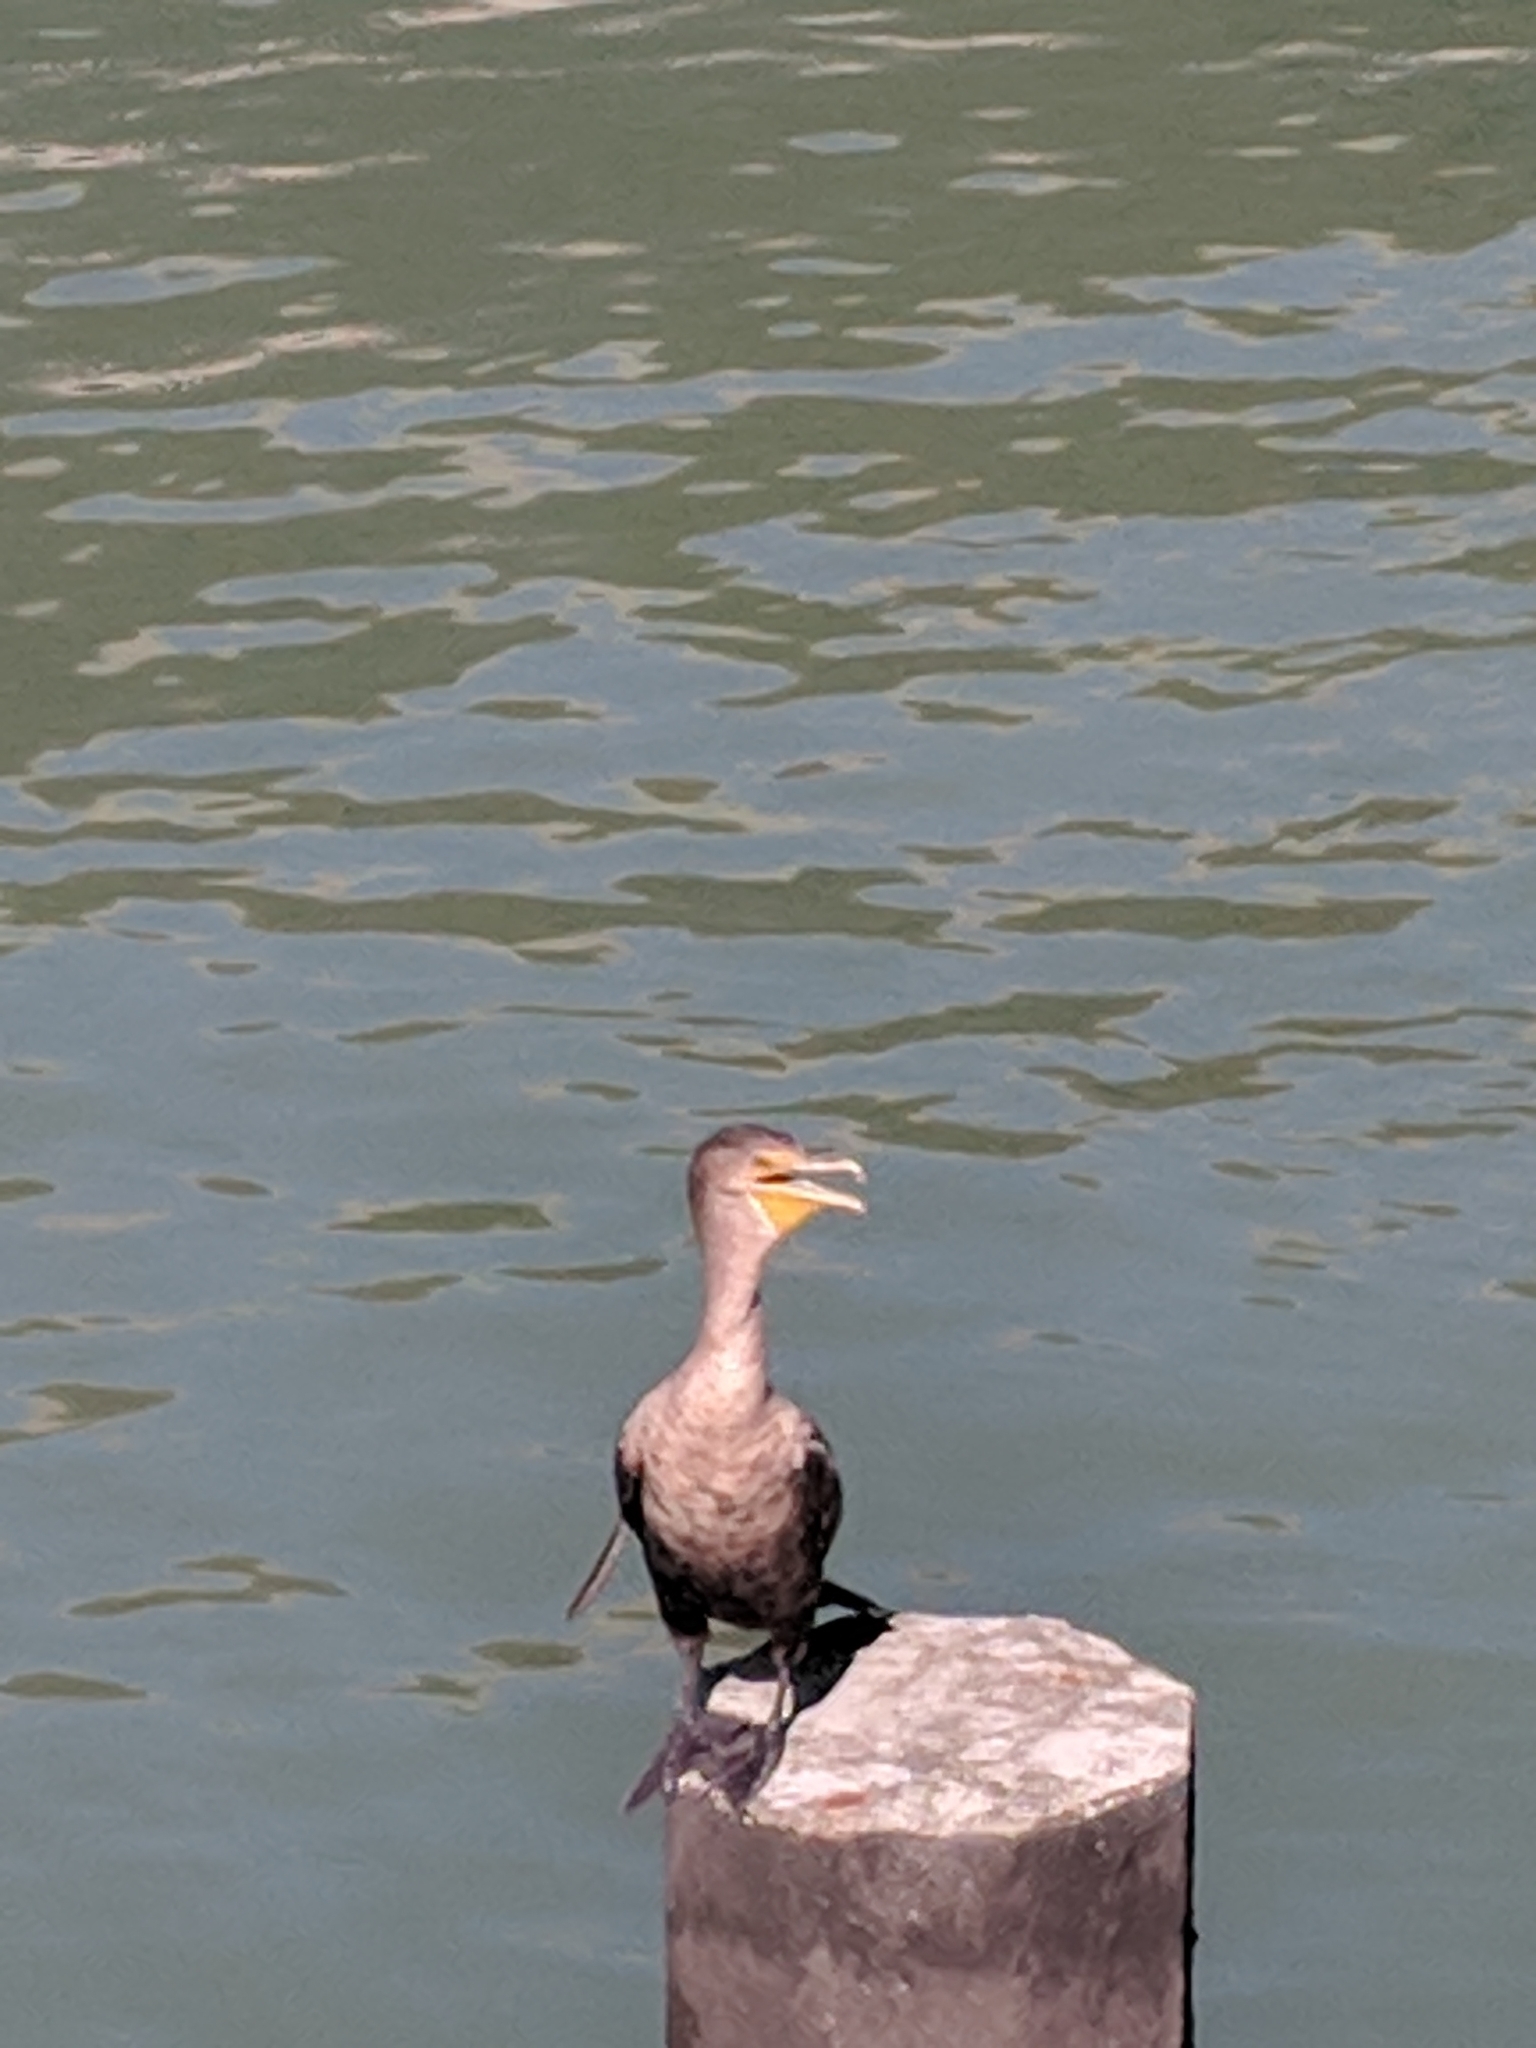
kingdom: Animalia
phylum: Chordata
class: Aves
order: Suliformes
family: Phalacrocoracidae
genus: Phalacrocorax
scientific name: Phalacrocorax auritus
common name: Double-crested cormorant
